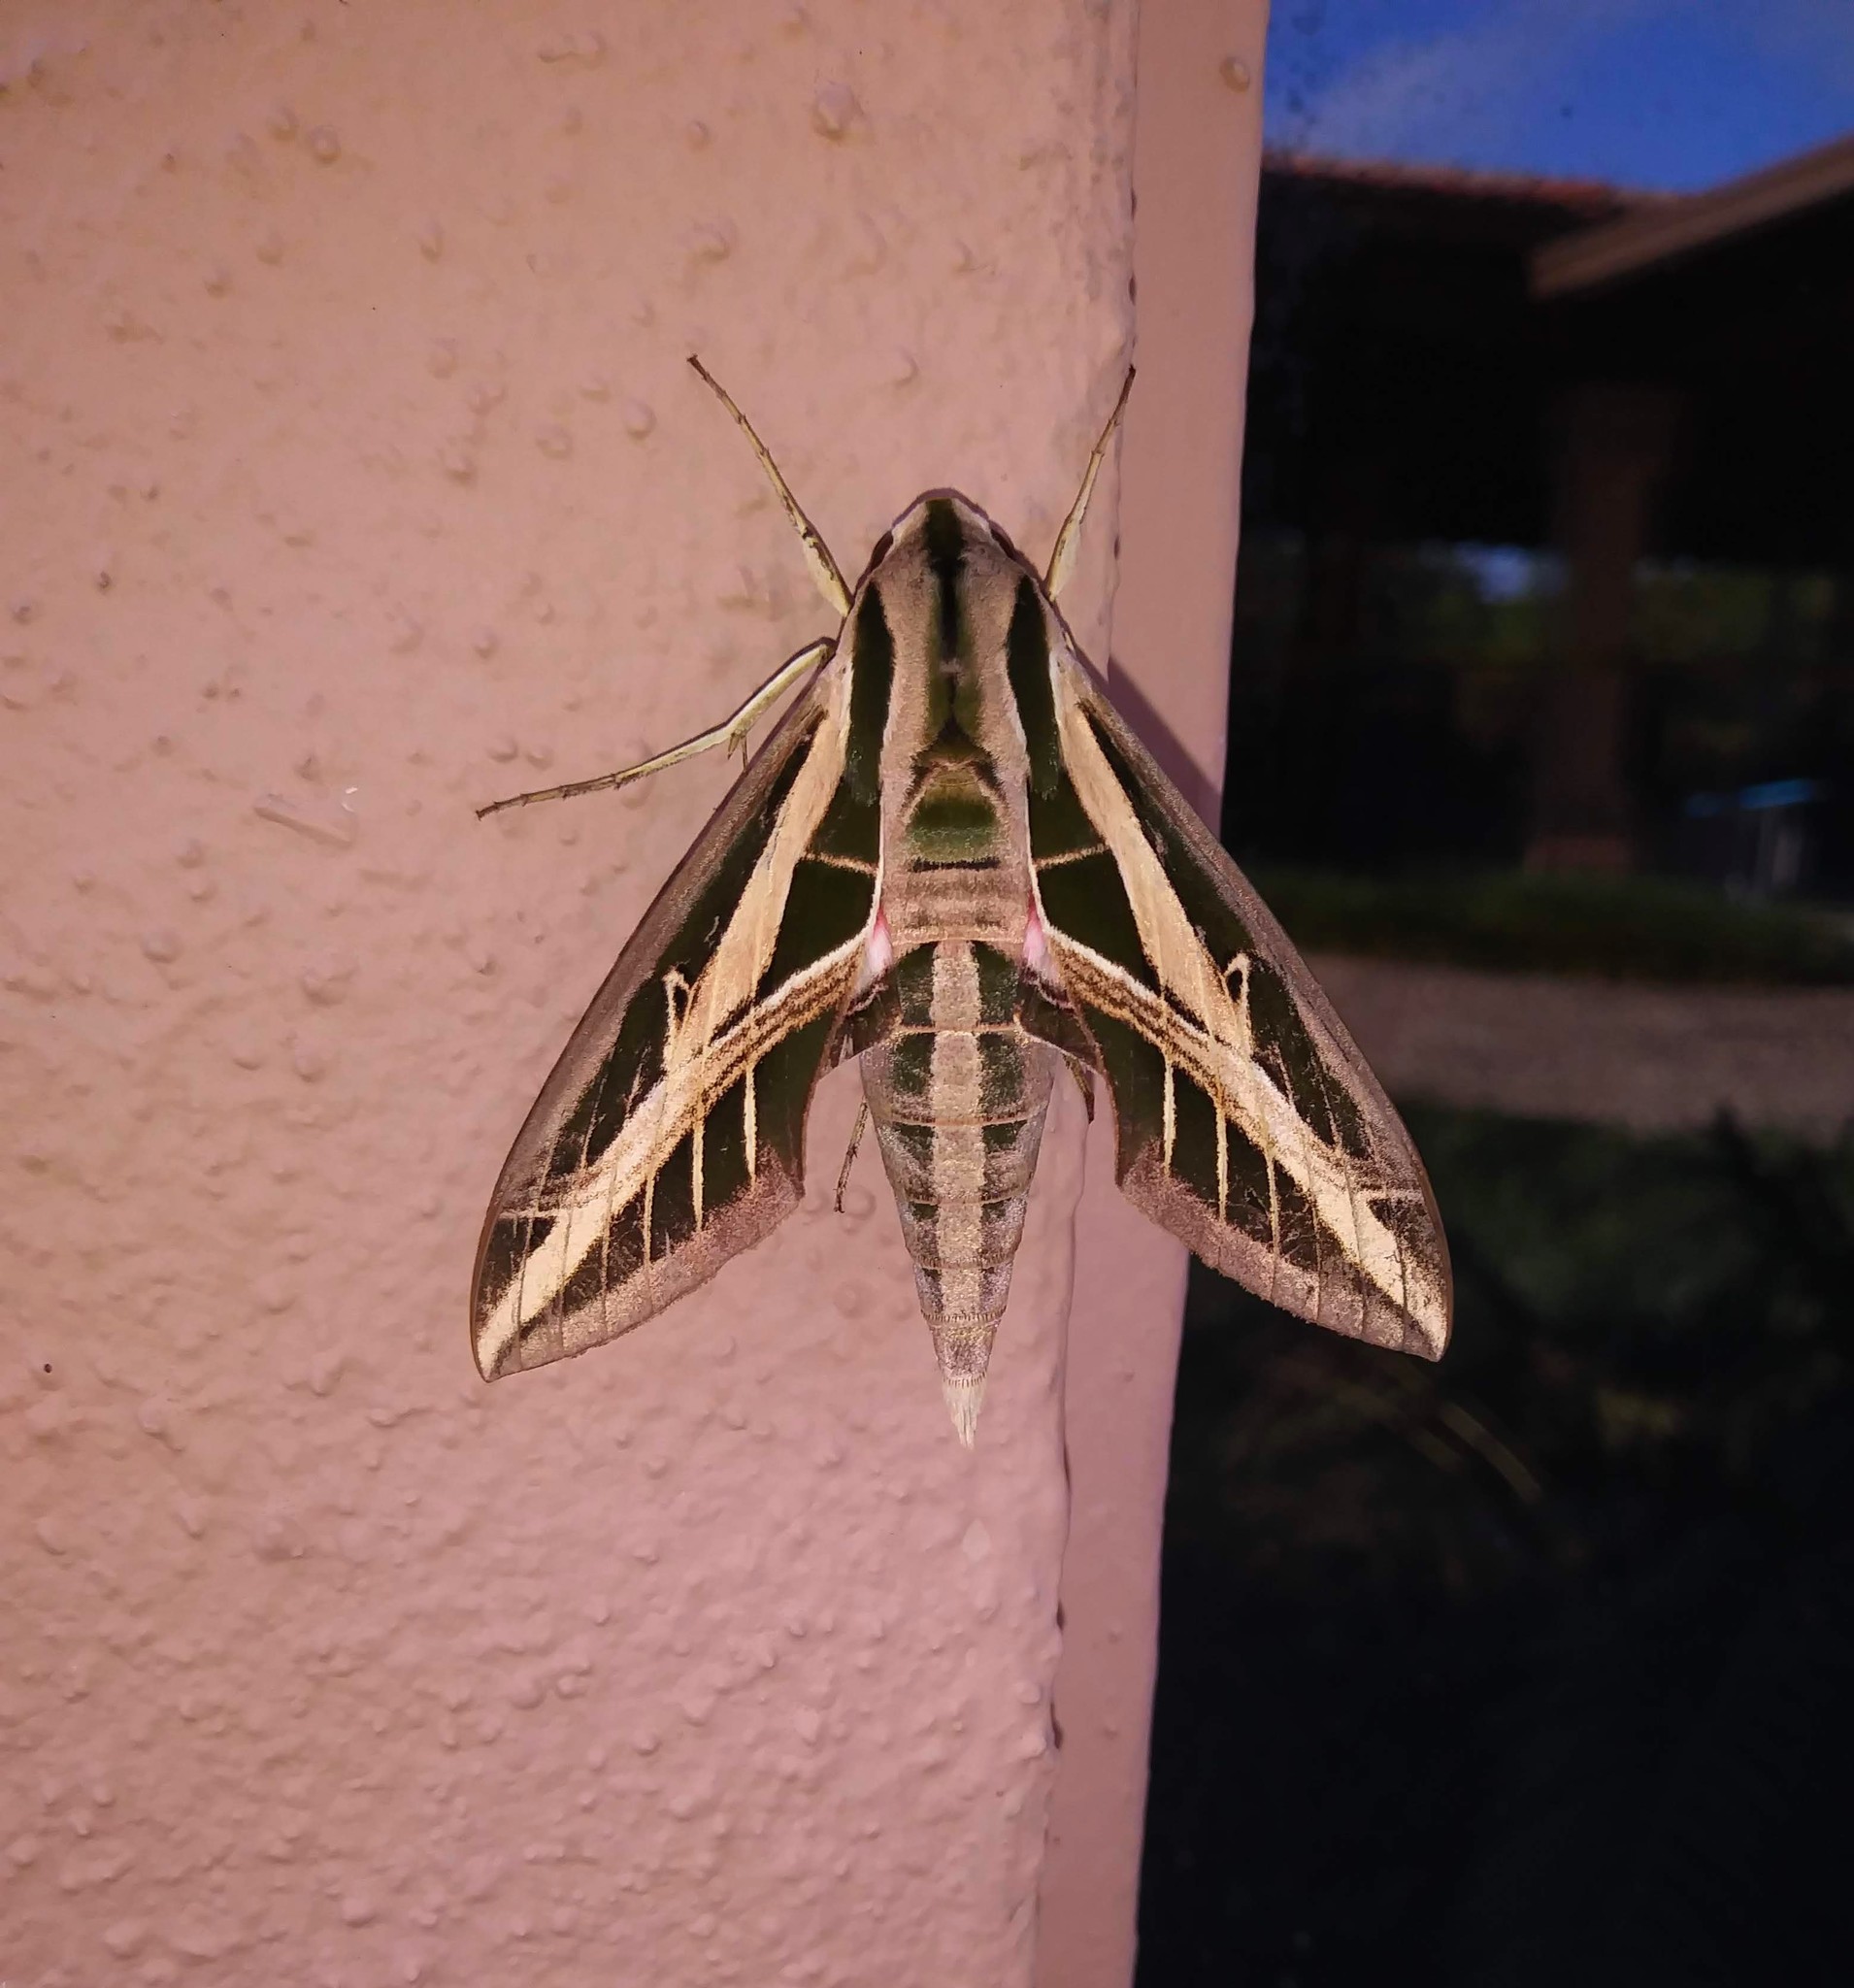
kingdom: Animalia
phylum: Arthropoda
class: Insecta
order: Lepidoptera
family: Sphingidae
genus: Eumorpha
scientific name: Eumorpha fasciatus
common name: Banded sphinx
